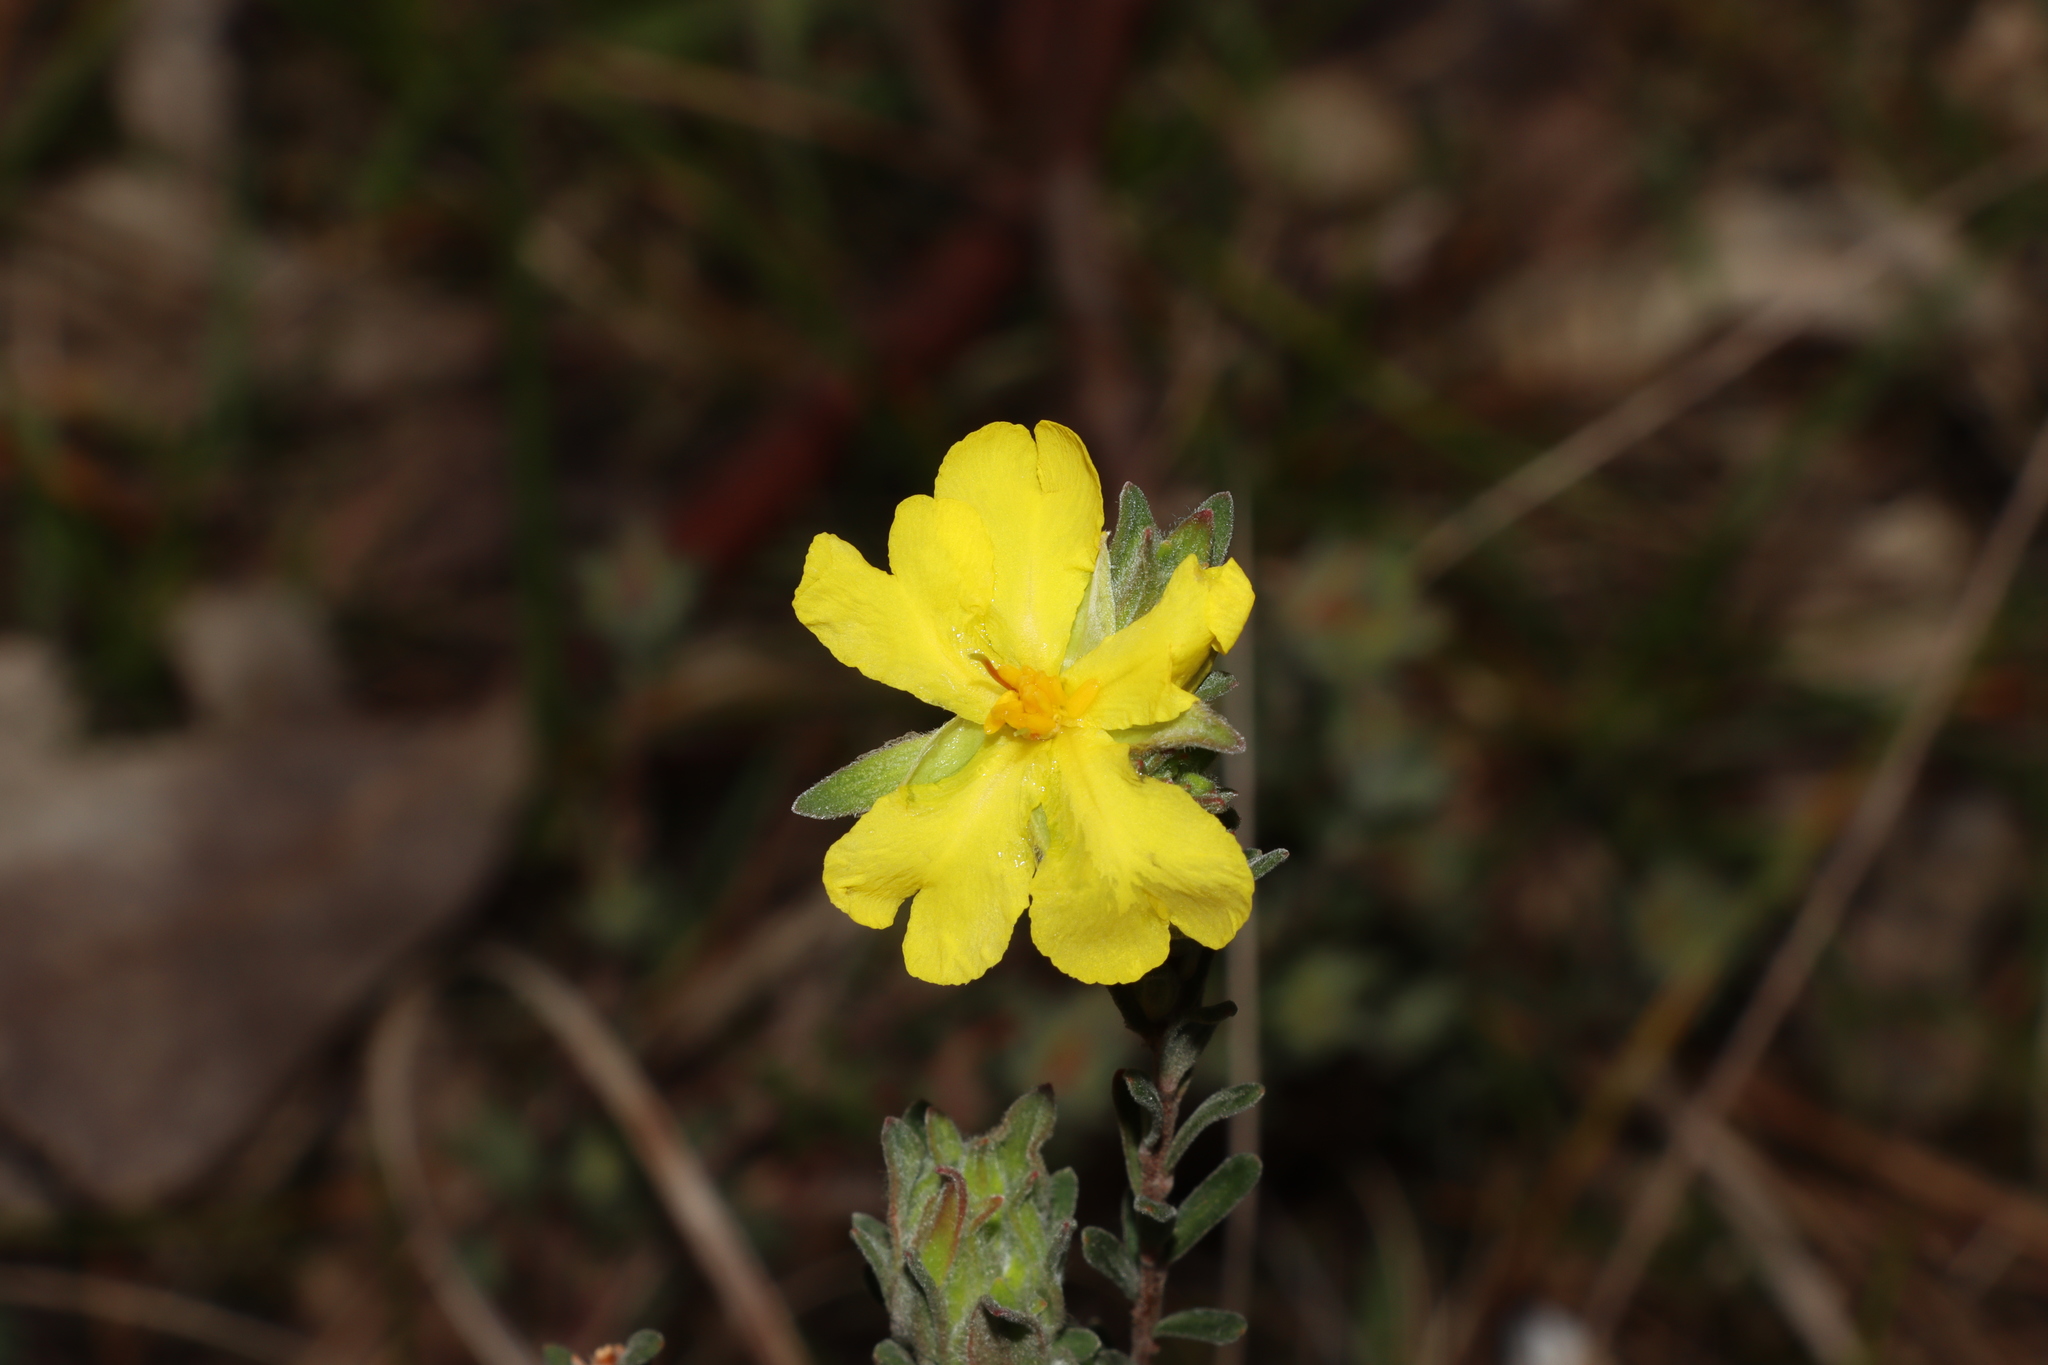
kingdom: Plantae
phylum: Tracheophyta
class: Magnoliopsida
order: Dilleniales
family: Dilleniaceae
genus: Hibbertia
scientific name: Hibbertia crinita
